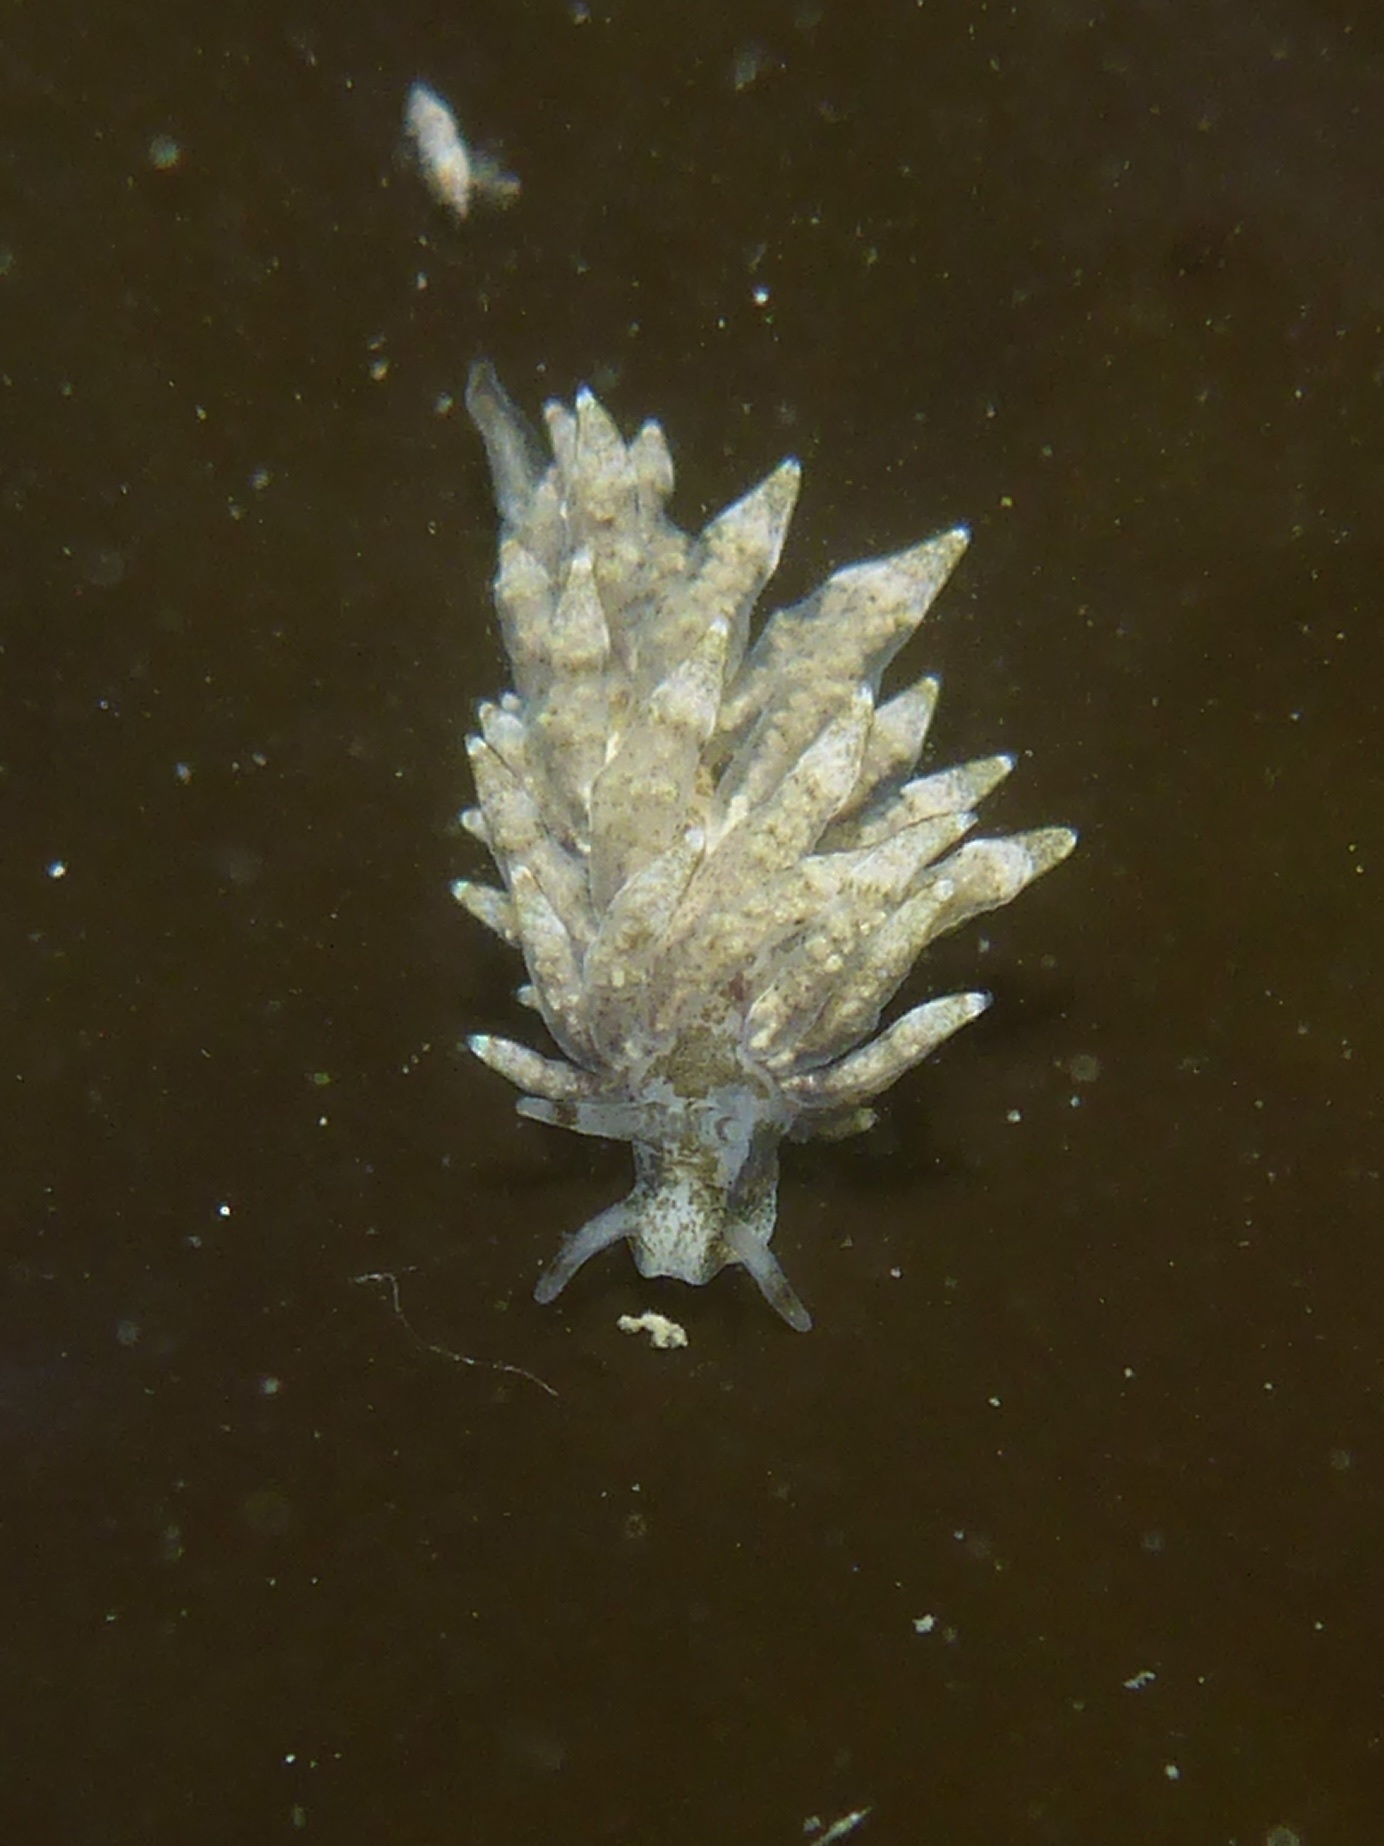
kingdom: Animalia
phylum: Mollusca
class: Gastropoda
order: Nudibranchia
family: Eubranchidae
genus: Eubranchus
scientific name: Eubranchus rustyus
